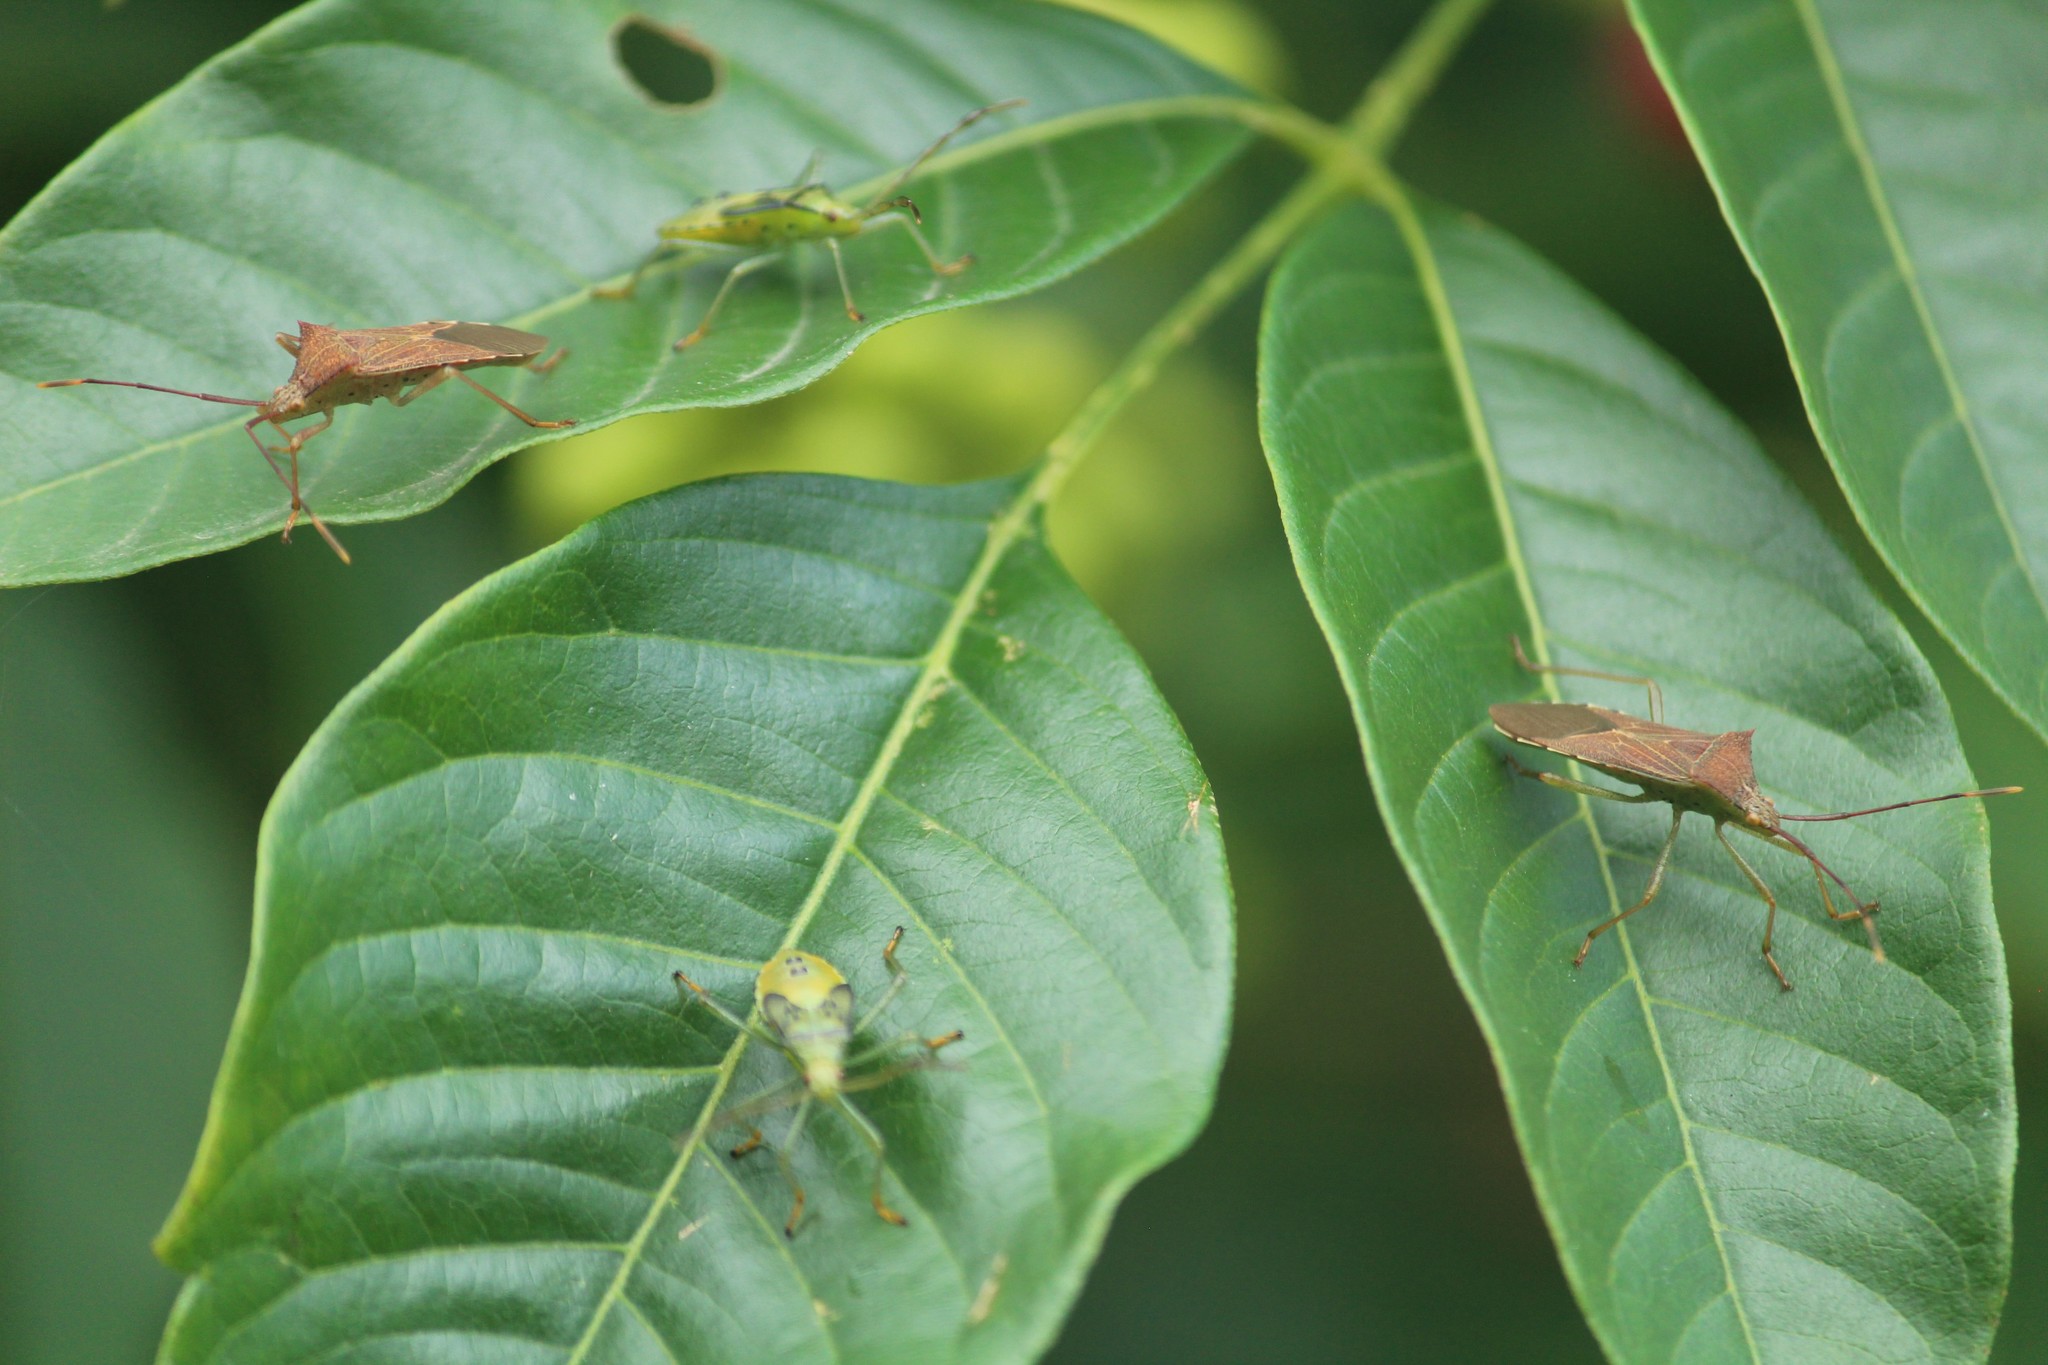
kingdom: Animalia
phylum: Arthropoda
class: Insecta
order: Hemiptera
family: Coreidae
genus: Plinachtus
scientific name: Plinachtus basalis
